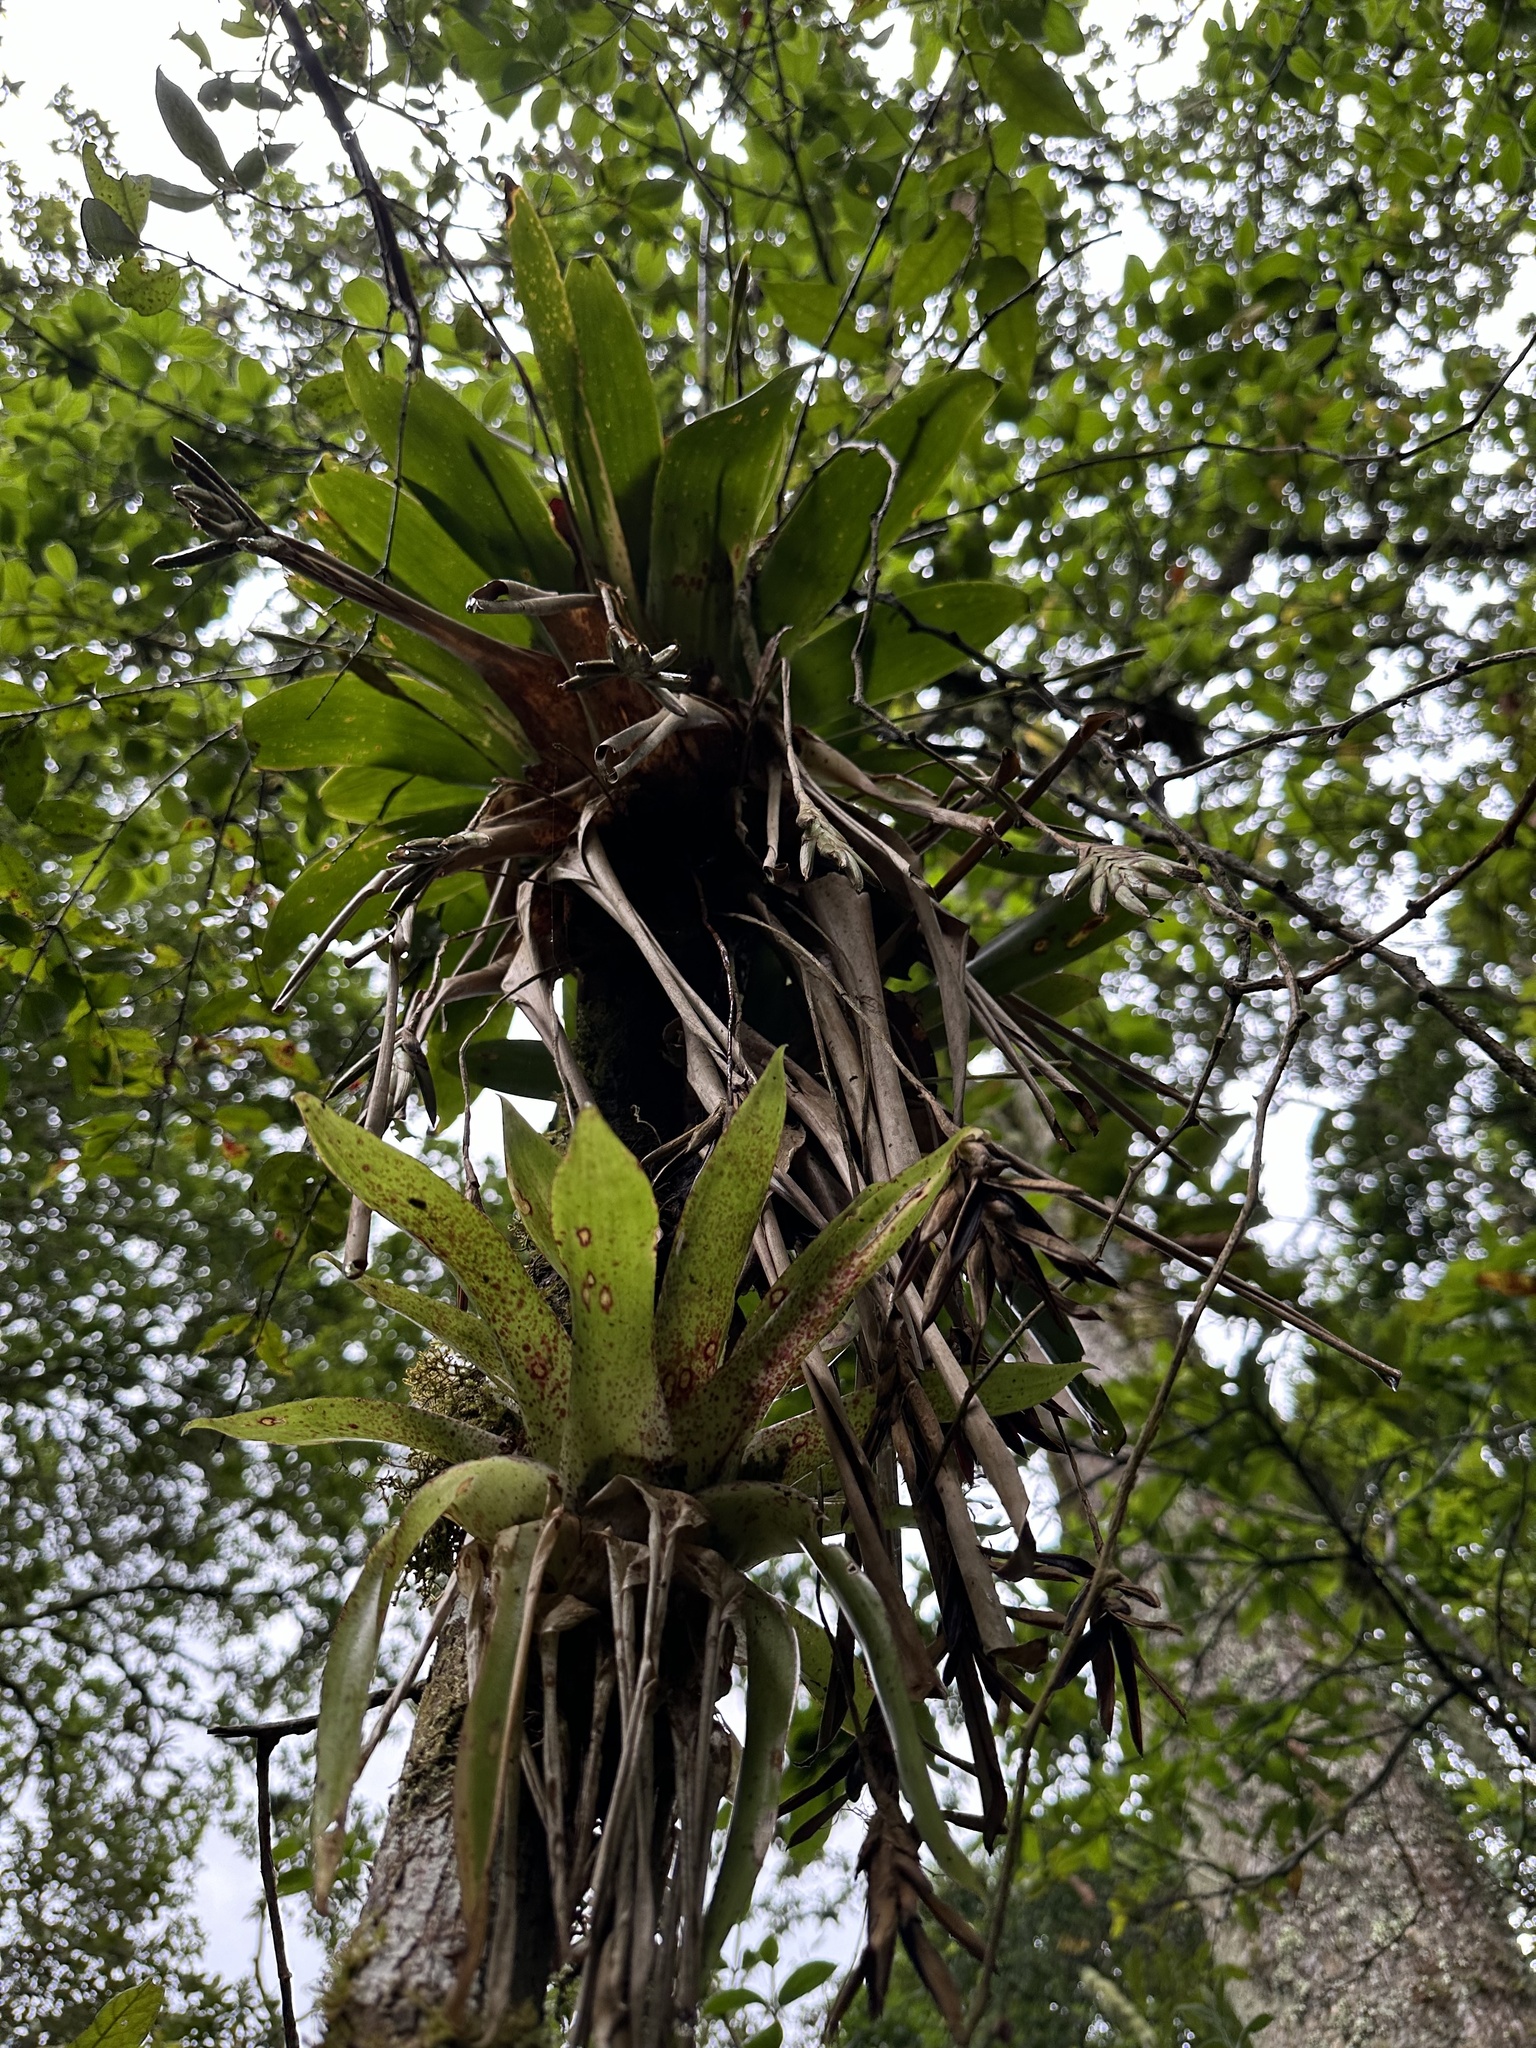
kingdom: Plantae
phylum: Tracheophyta
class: Liliopsida
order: Poales
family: Bromeliaceae
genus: Tillandsia
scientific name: Tillandsia complanata
